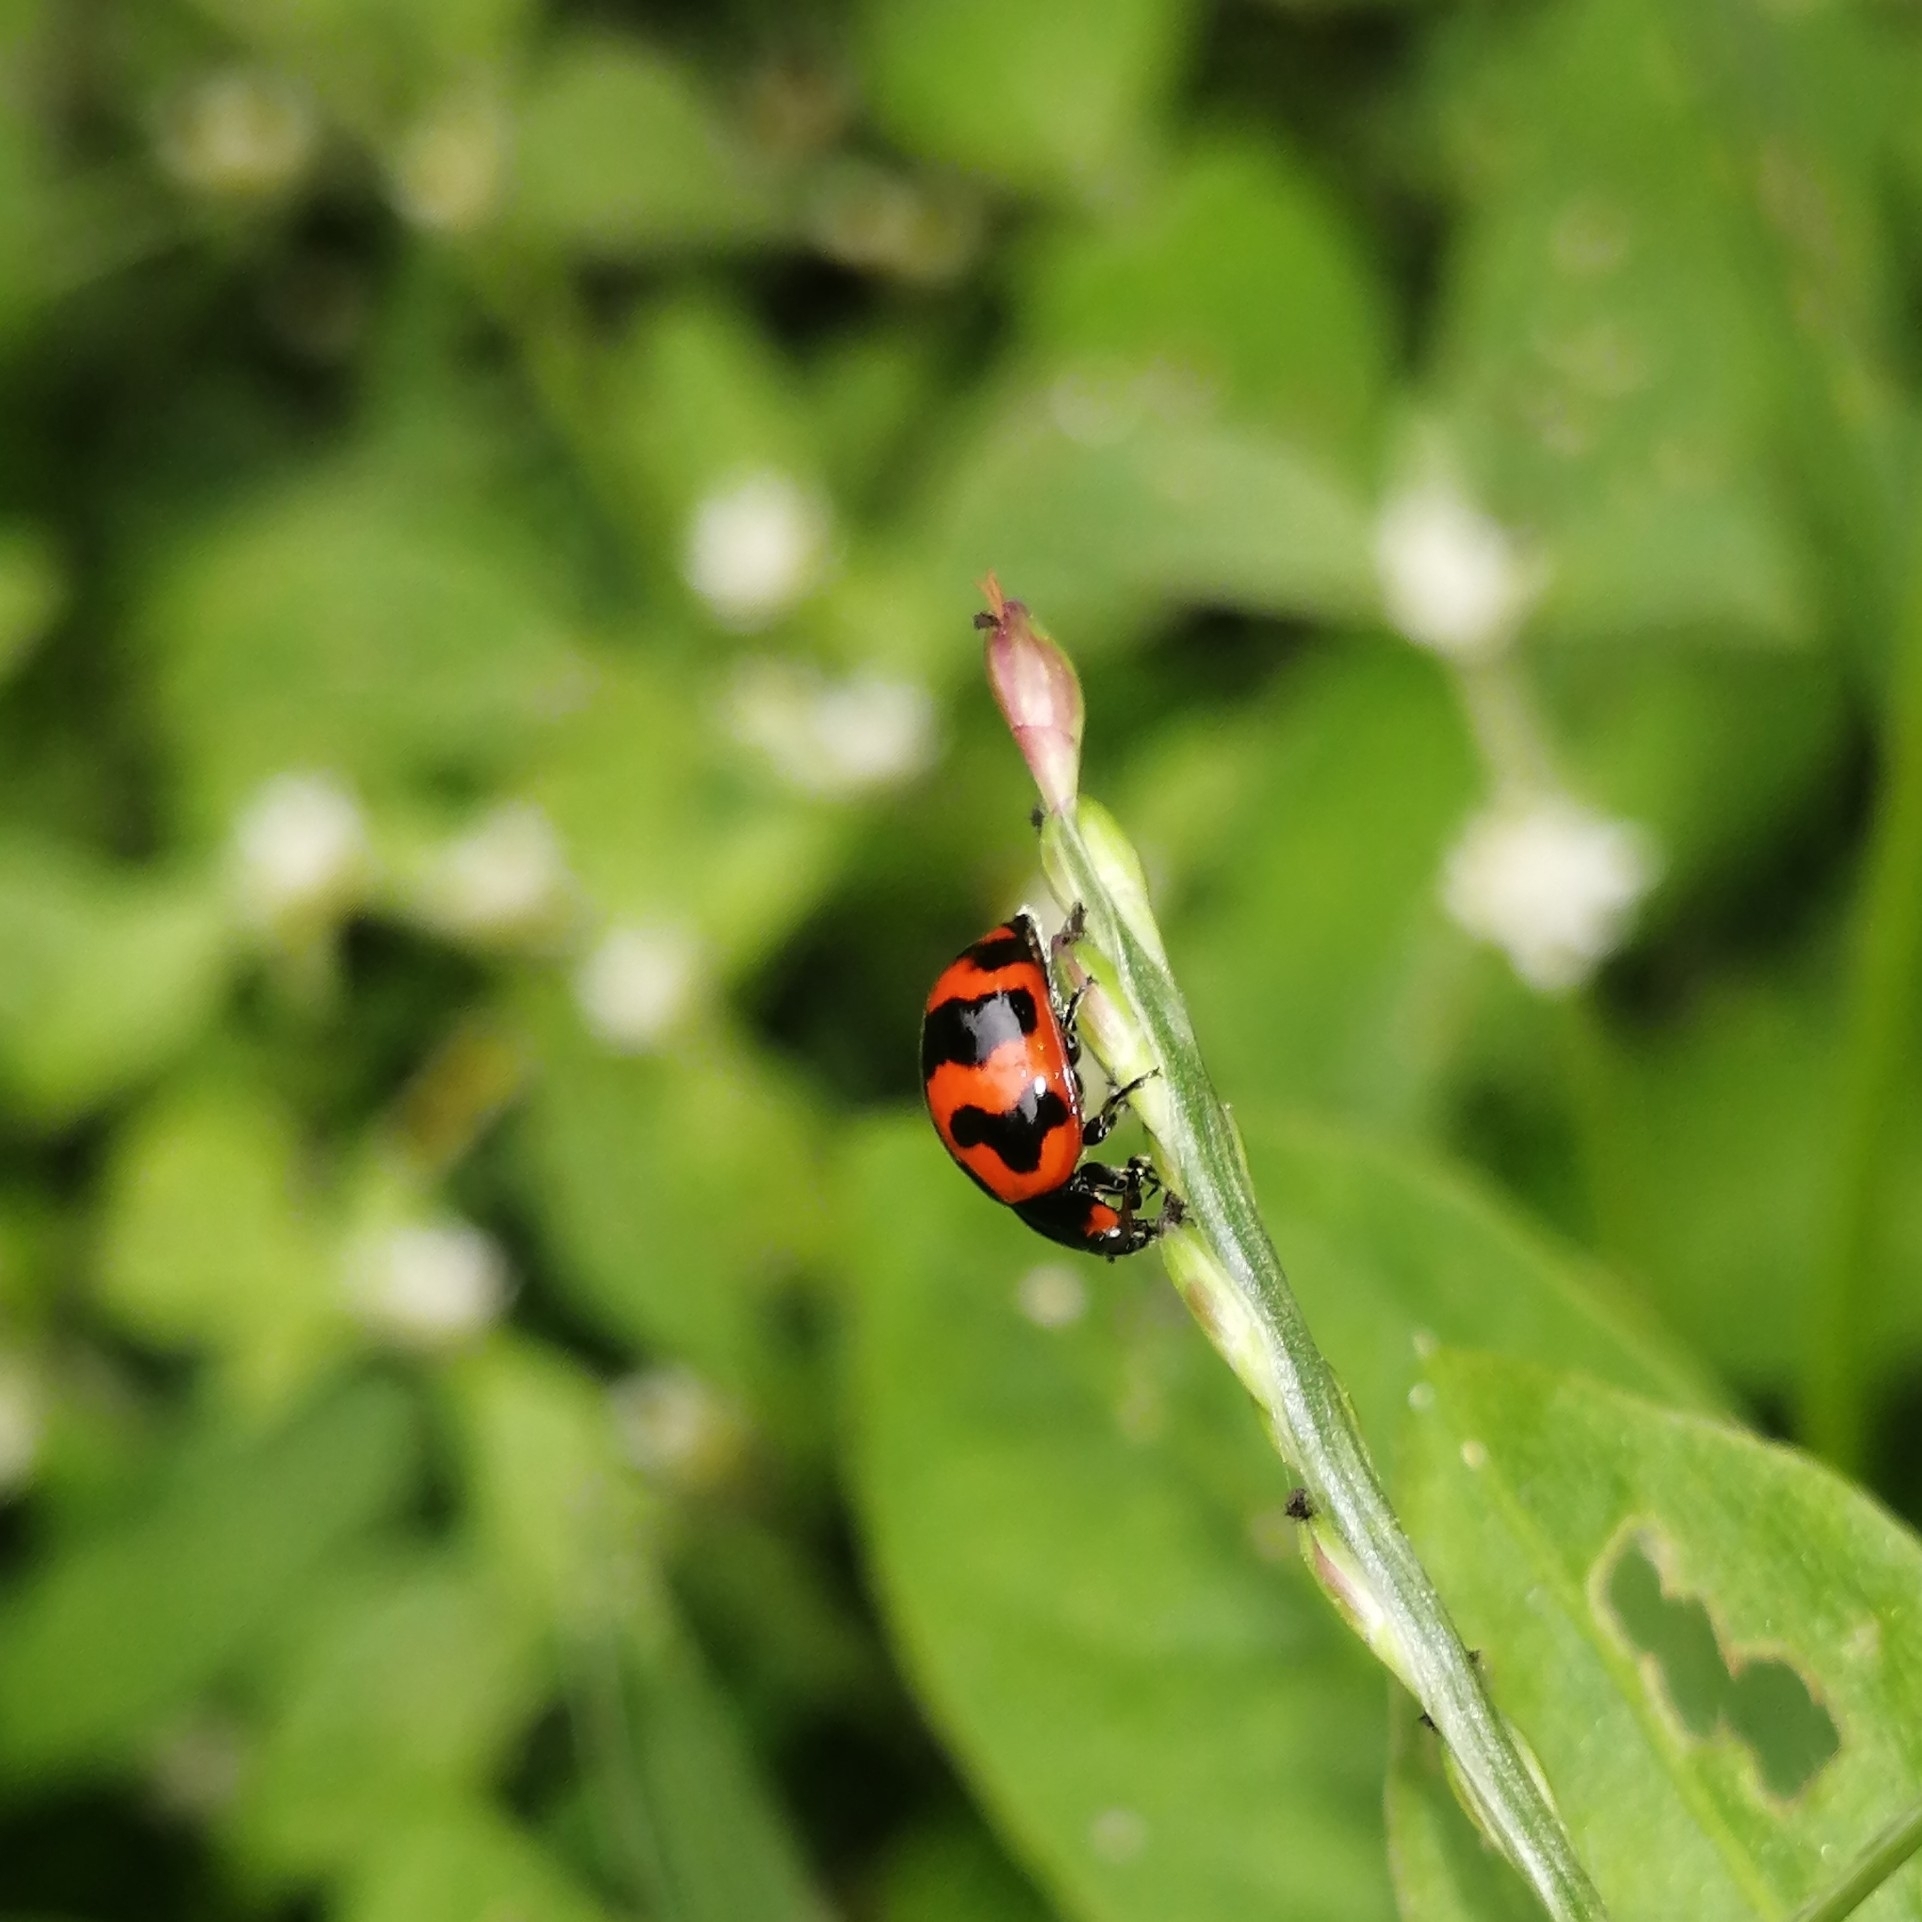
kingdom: Animalia
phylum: Arthropoda
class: Insecta
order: Coleoptera
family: Coccinellidae
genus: Coccinella
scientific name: Coccinella transversalis
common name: Transverse lady beetle
